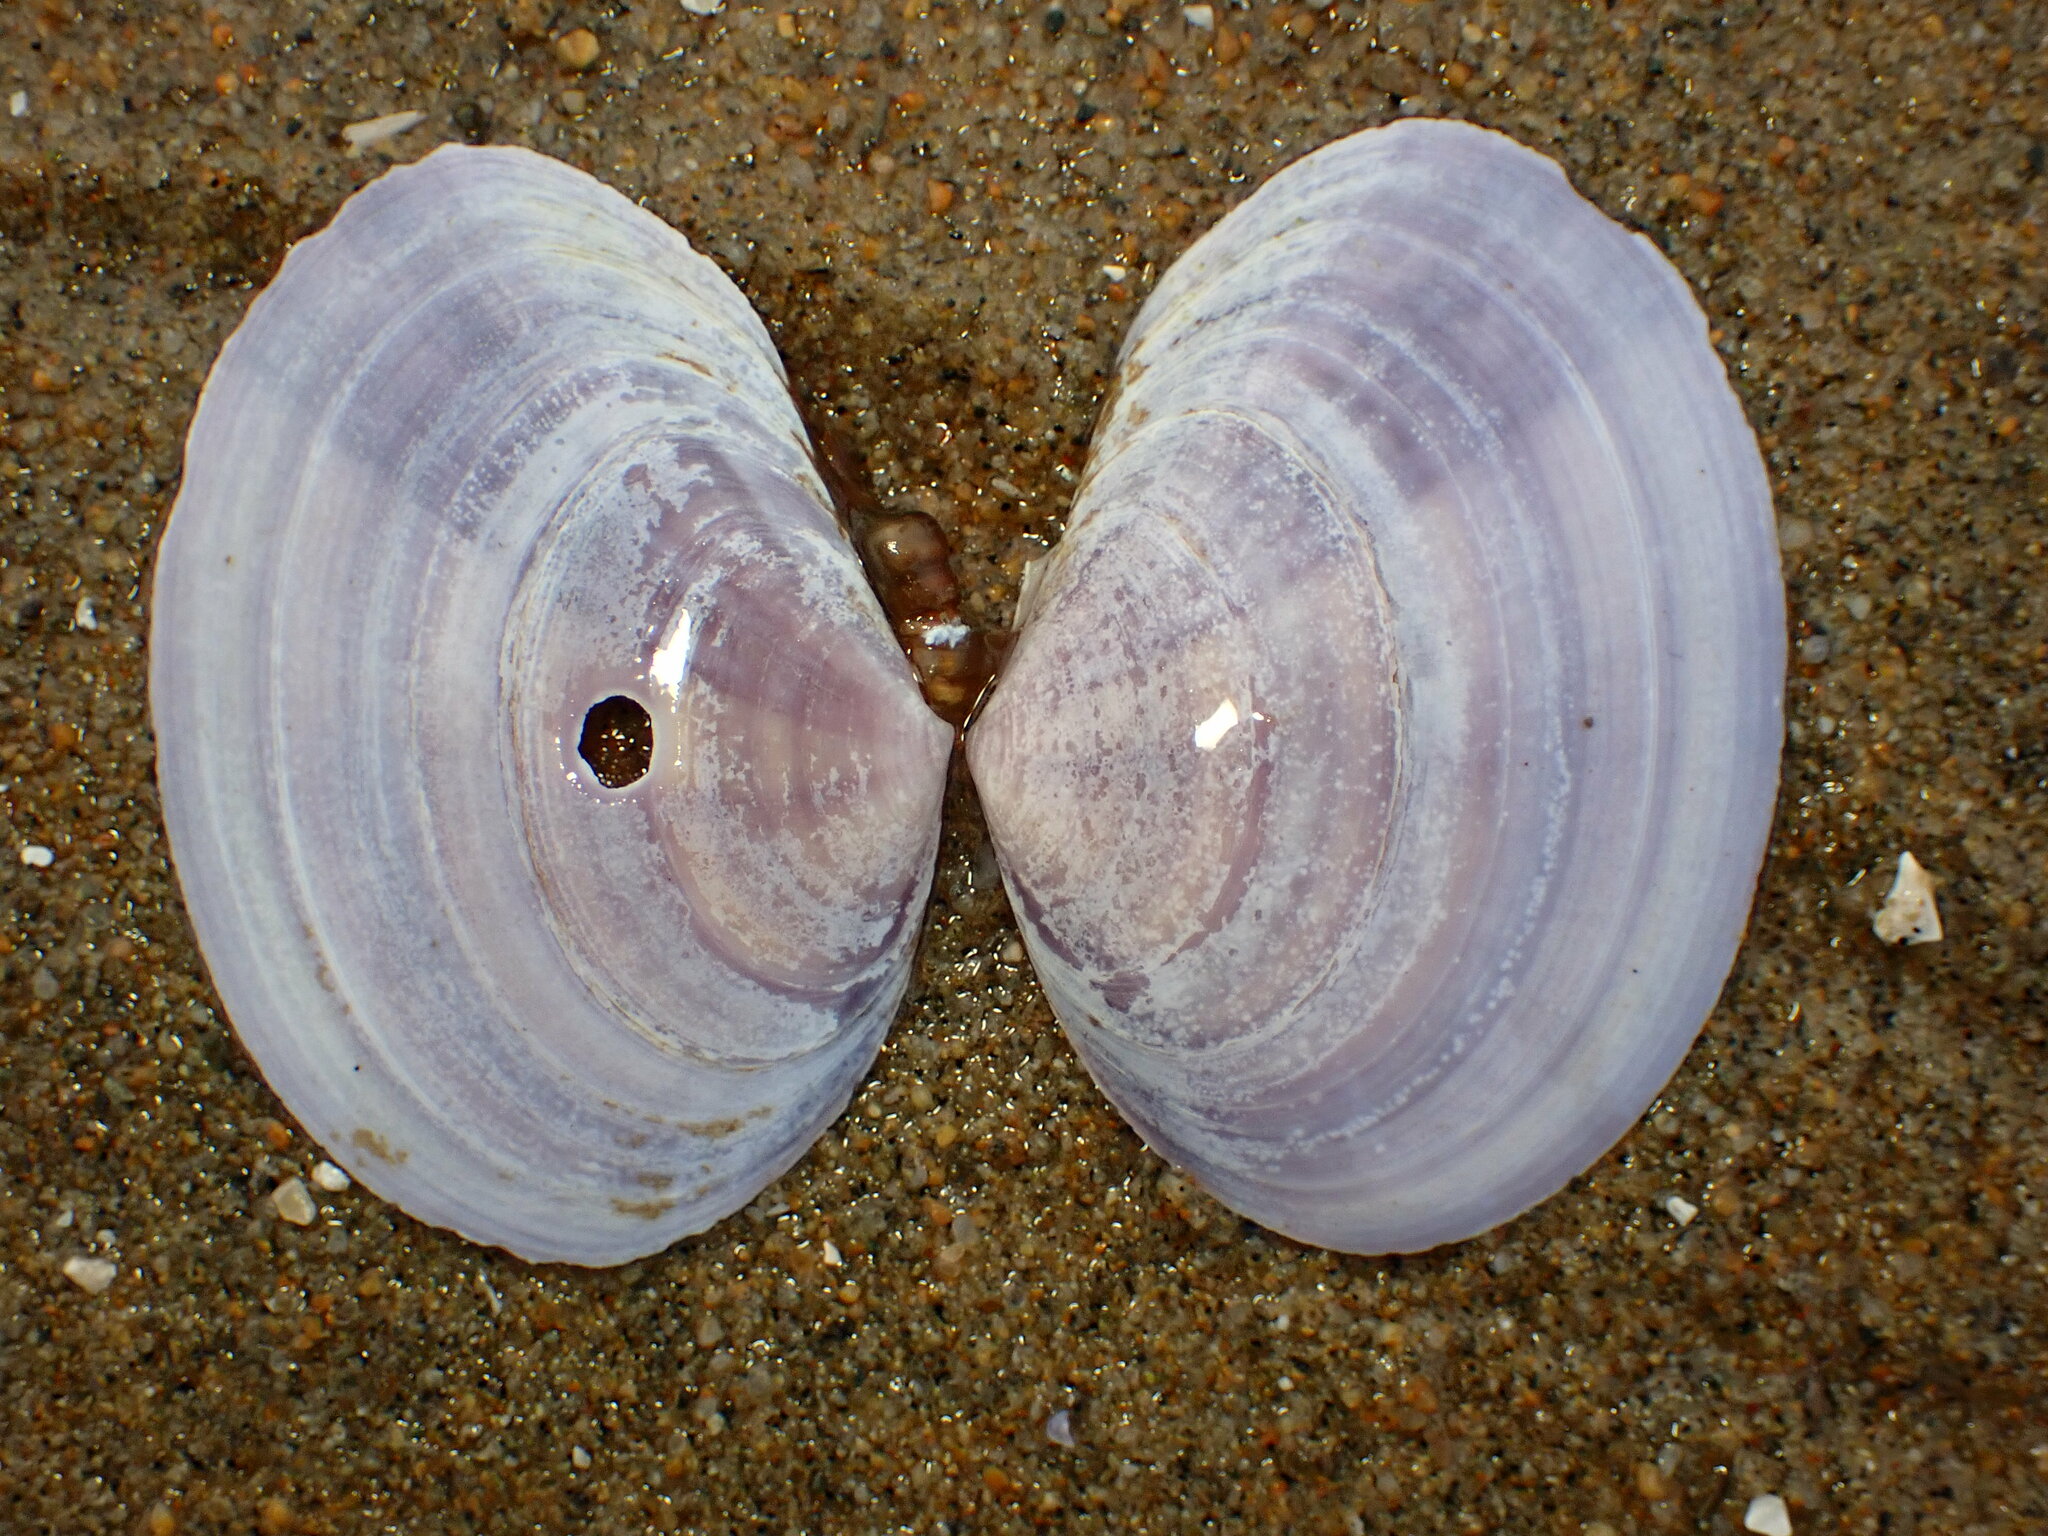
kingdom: Animalia
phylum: Mollusca
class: Bivalvia
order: Cardiida
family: Psammobiidae
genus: Nuttallia
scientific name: Nuttallia nuttallii
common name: California mahogany-clam
